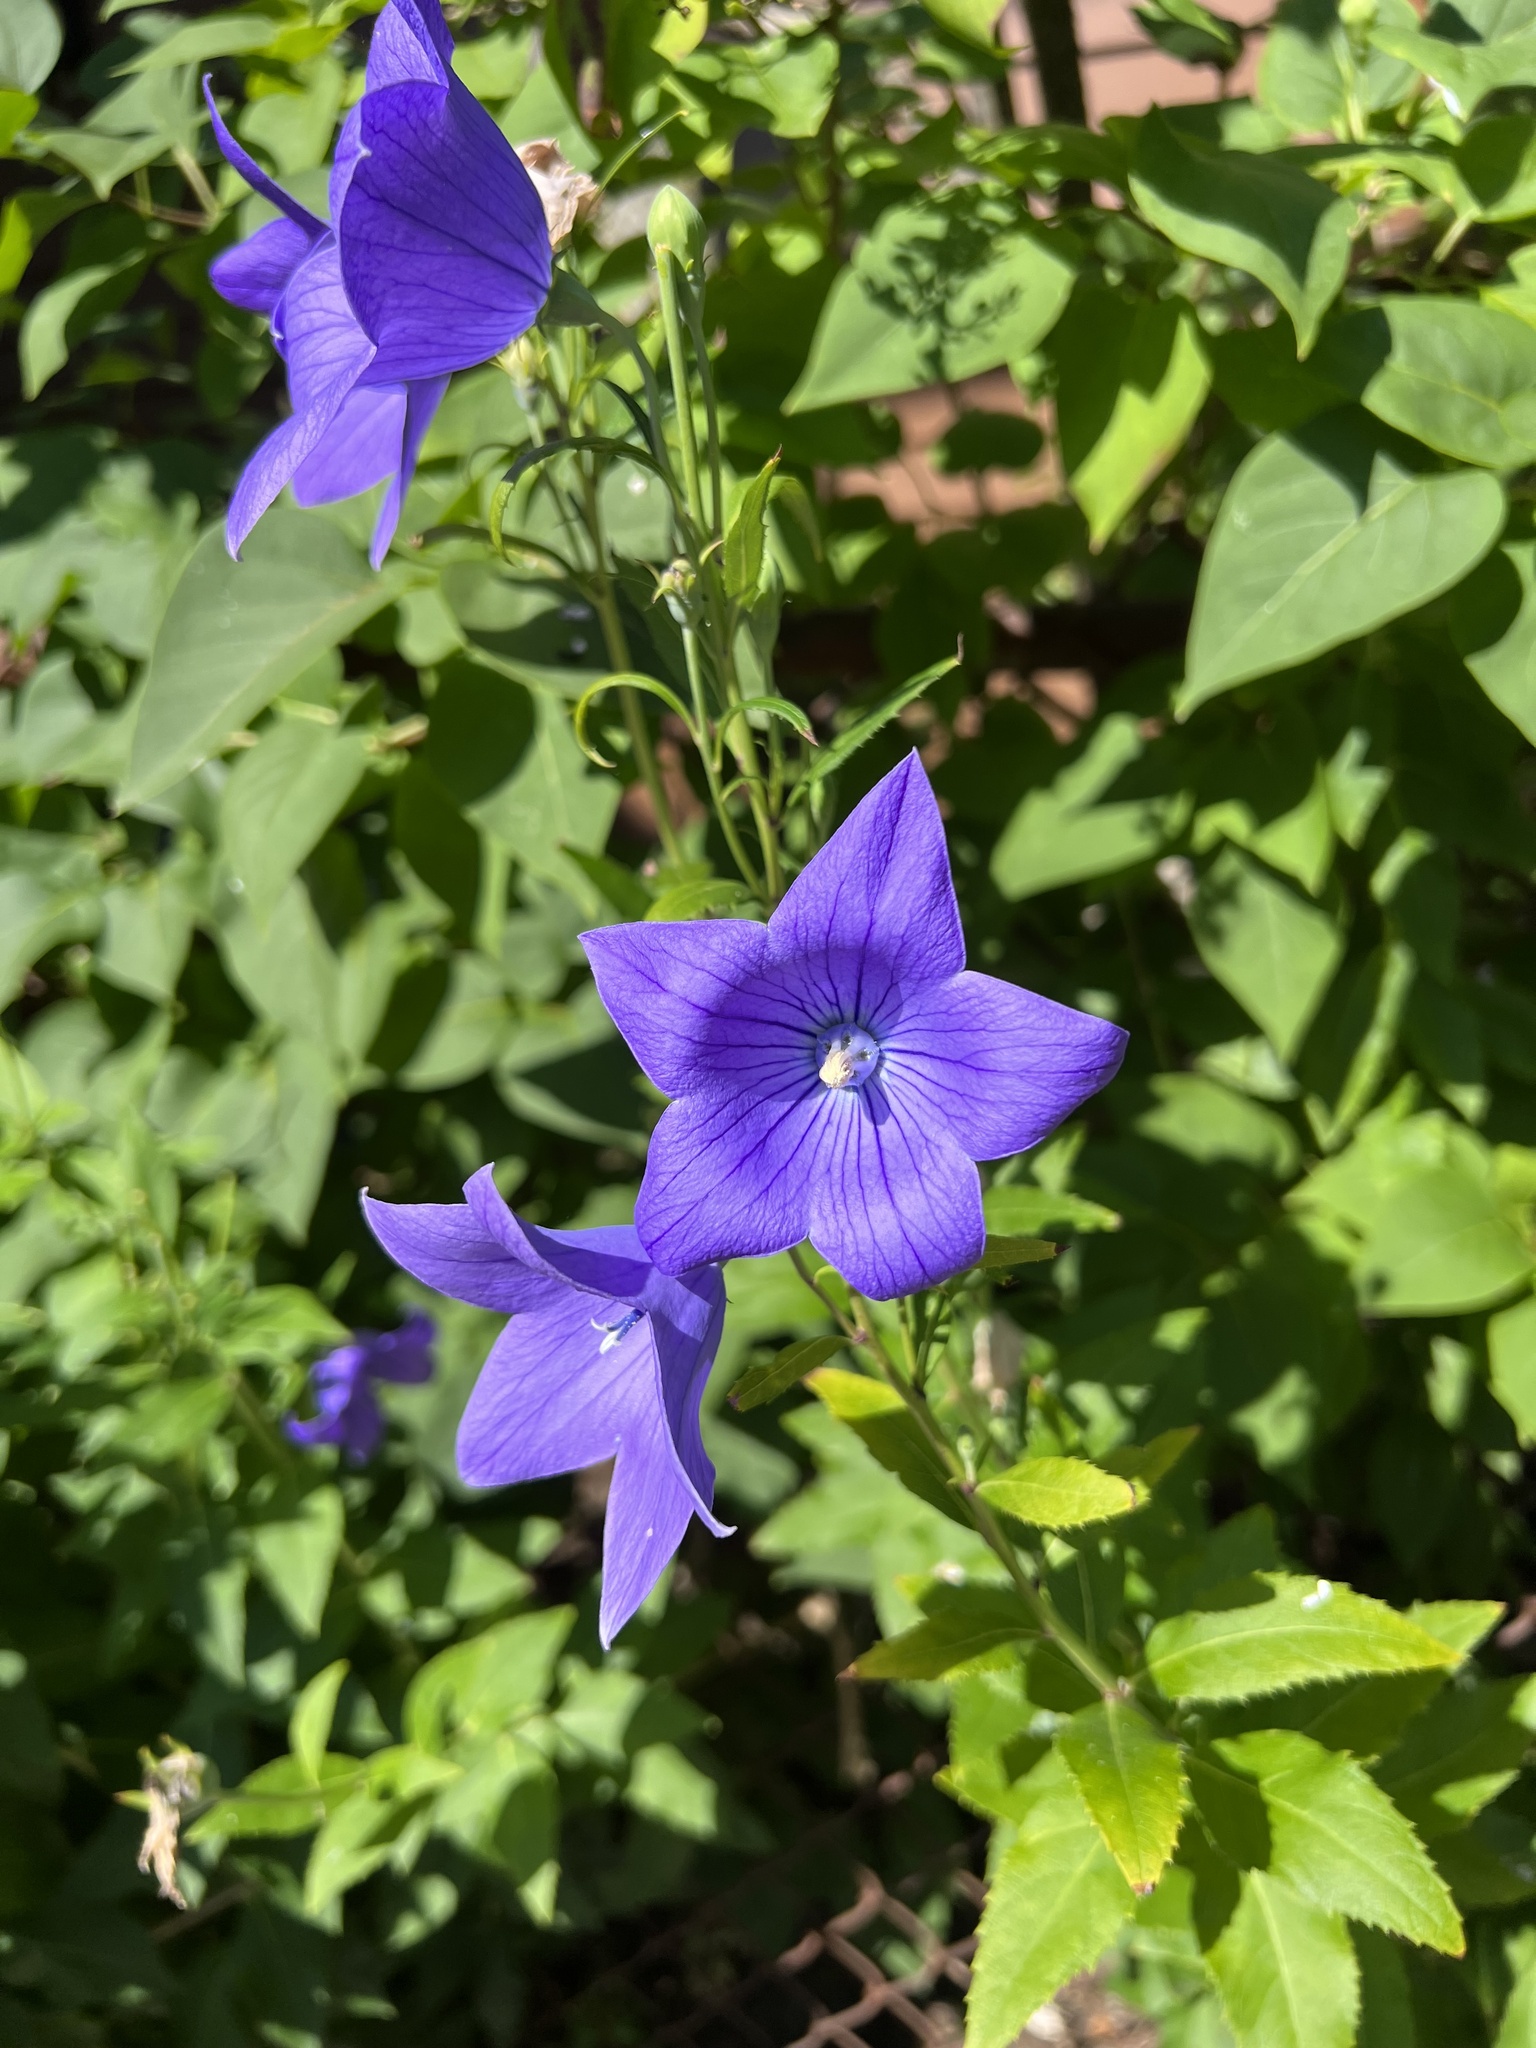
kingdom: Plantae
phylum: Tracheophyta
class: Magnoliopsida
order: Asterales
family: Campanulaceae
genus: Platycodon
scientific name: Platycodon grandiflorus
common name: Balloon-flower
